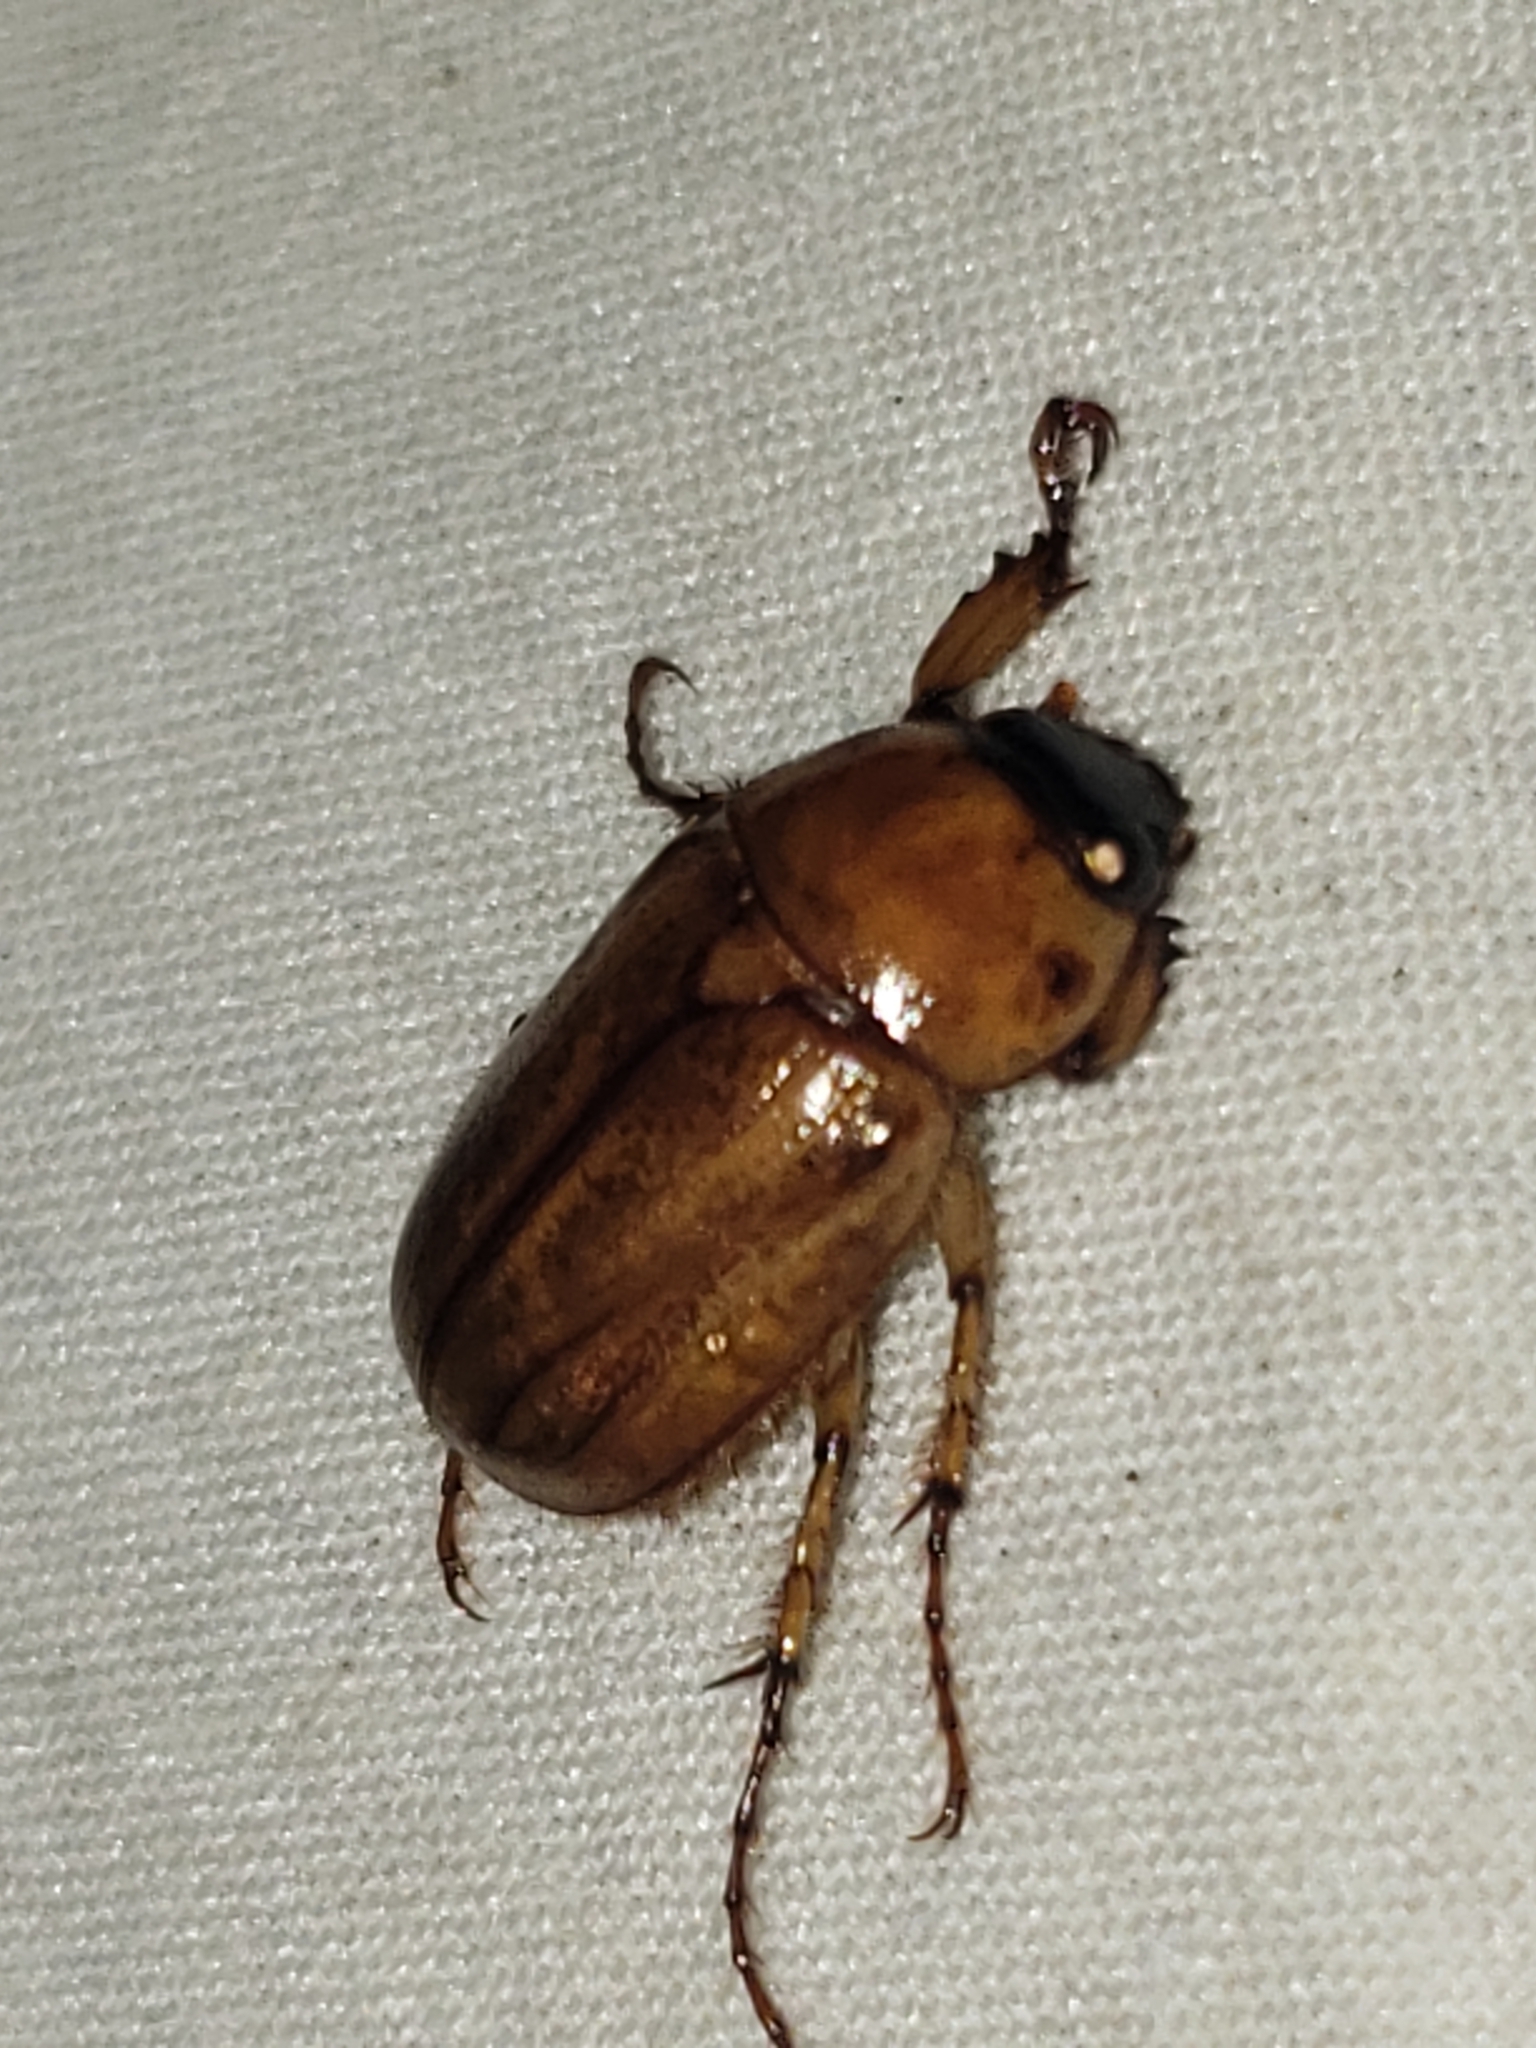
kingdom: Animalia
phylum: Arthropoda
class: Insecta
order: Coleoptera
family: Scarabaeidae
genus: Cyclocephala
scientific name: Cyclocephala lurida
